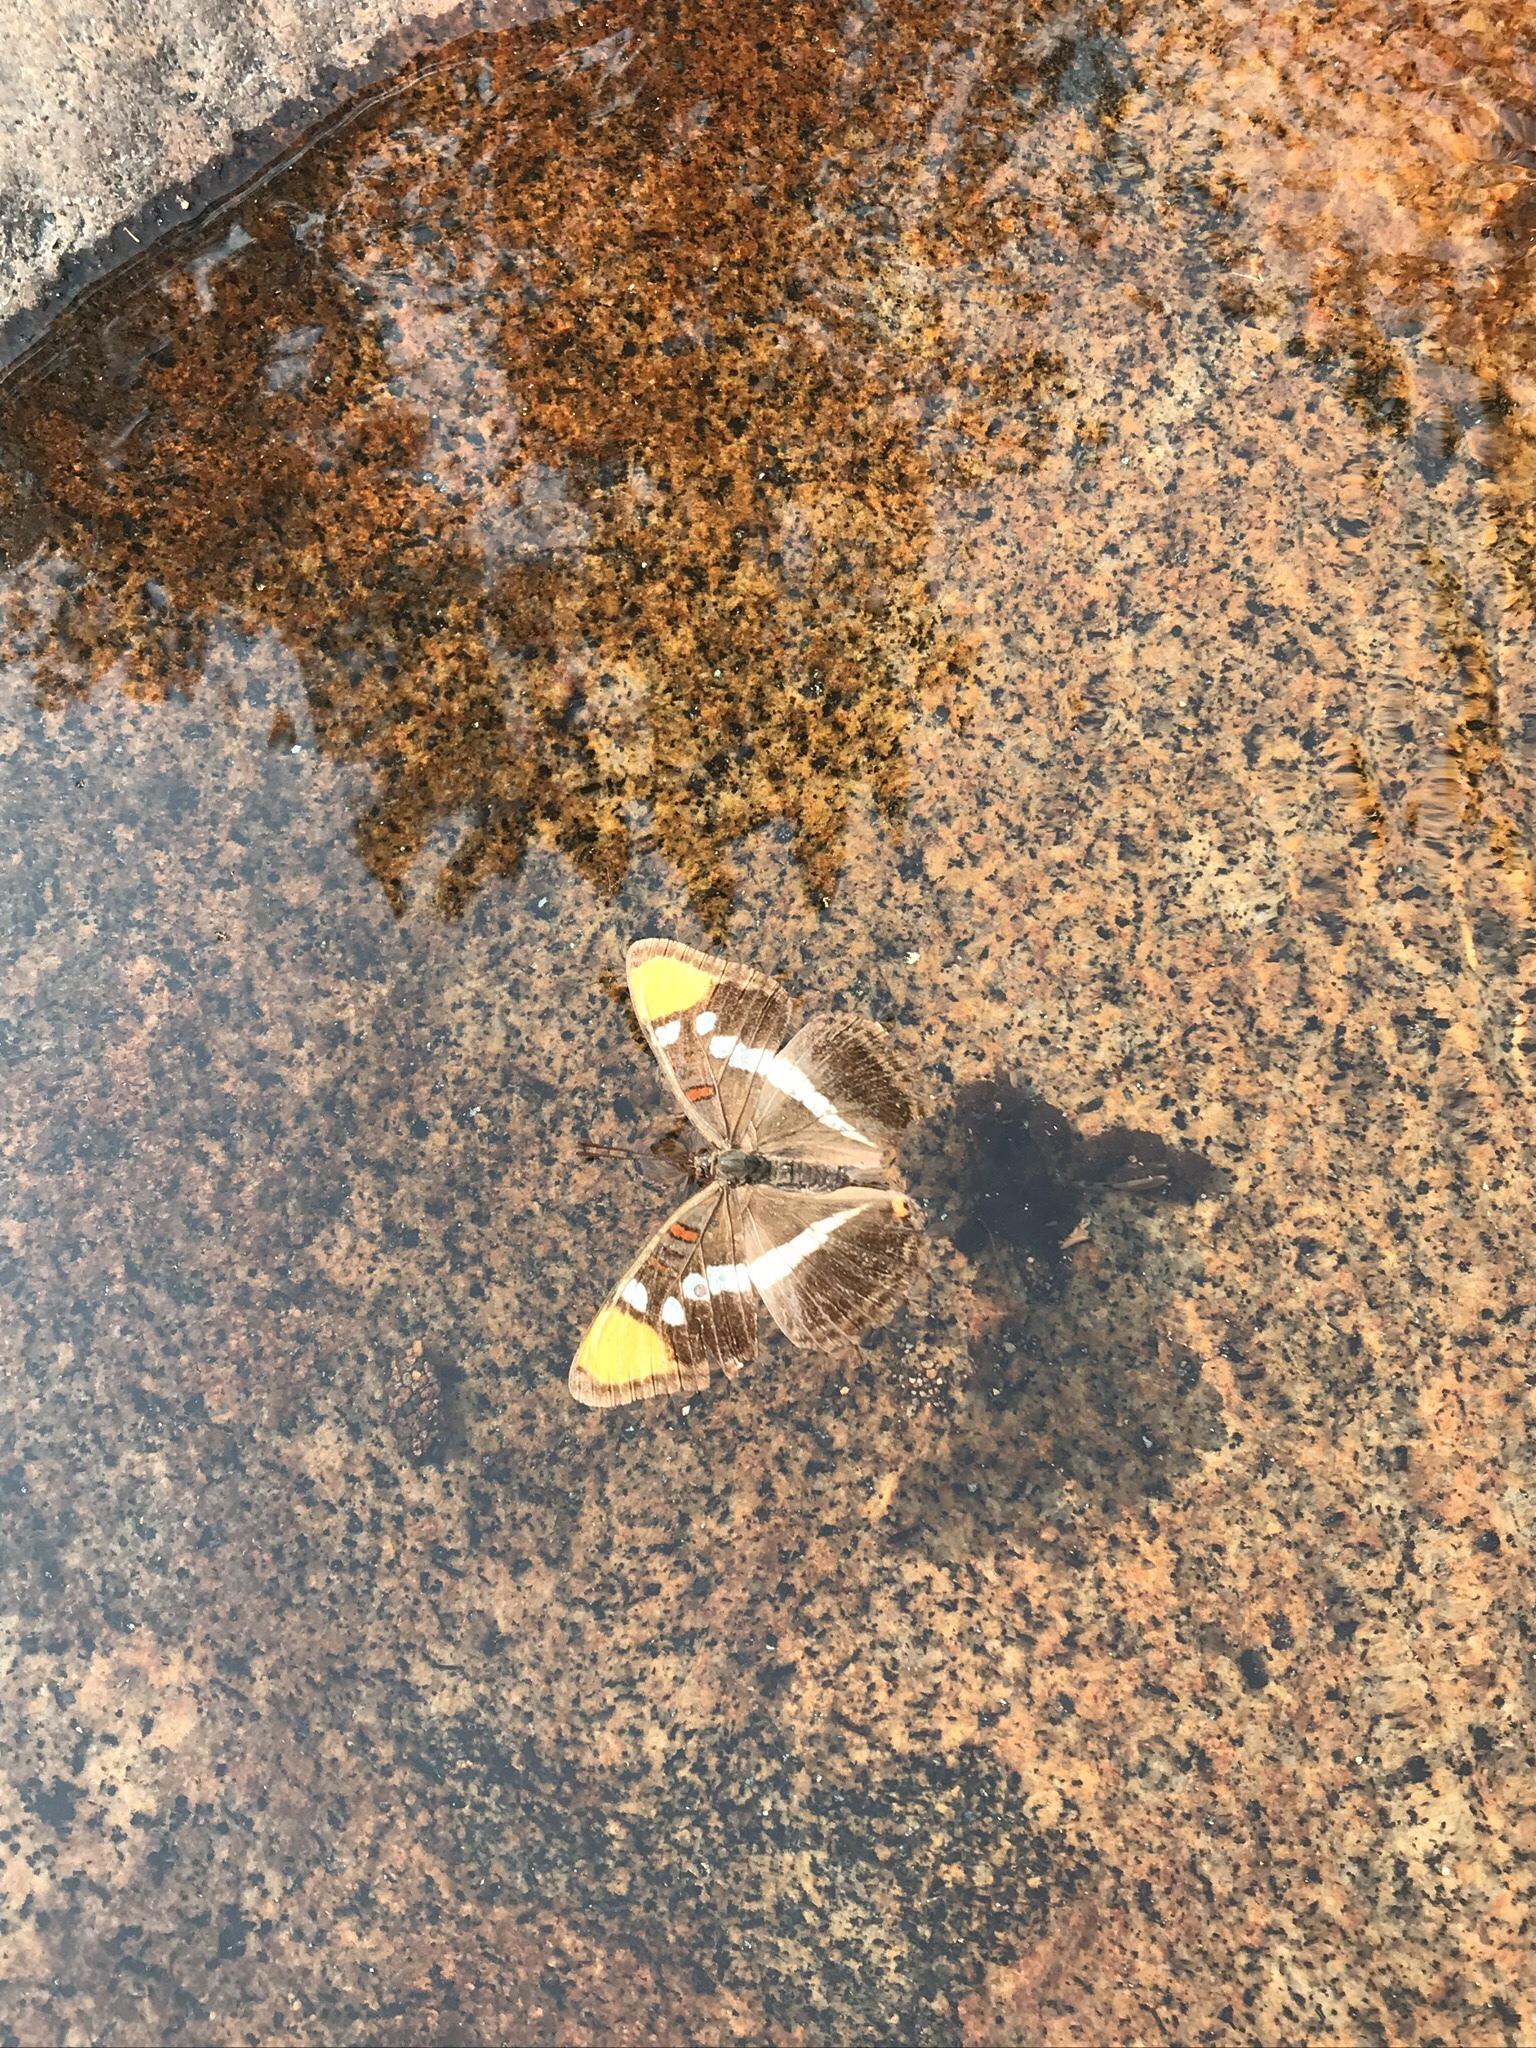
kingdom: Animalia
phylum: Arthropoda
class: Insecta
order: Lepidoptera
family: Nymphalidae
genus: Limenitis
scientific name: Limenitis bredowii
